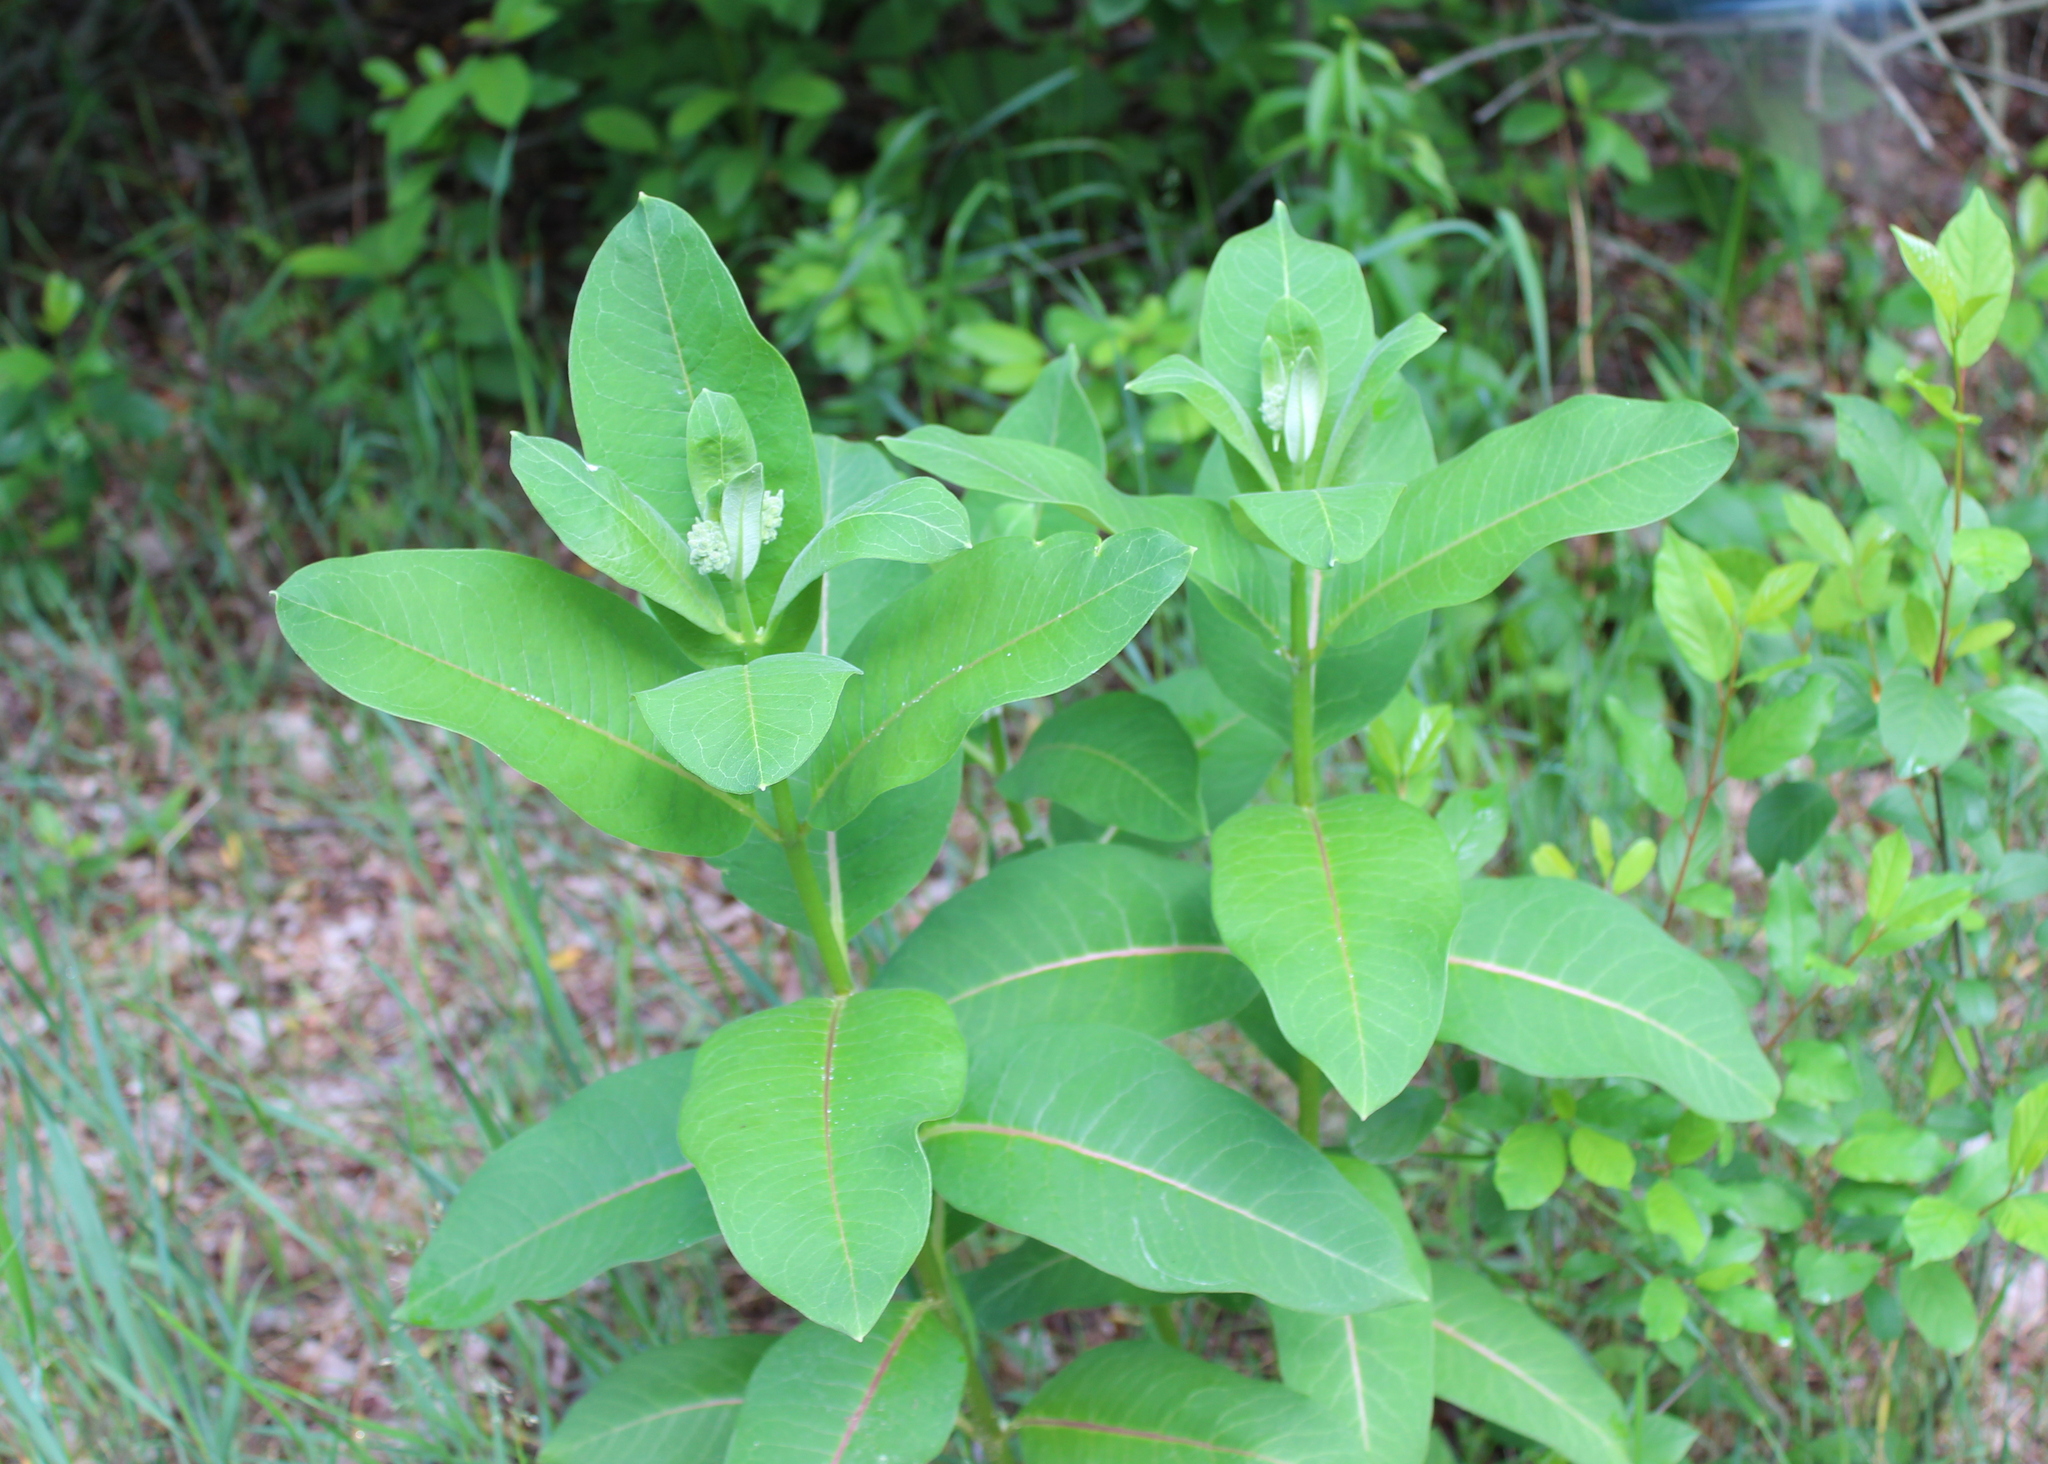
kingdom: Plantae
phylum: Tracheophyta
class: Magnoliopsida
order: Gentianales
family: Apocynaceae
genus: Asclepias
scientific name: Asclepias syriaca
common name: Common milkweed
